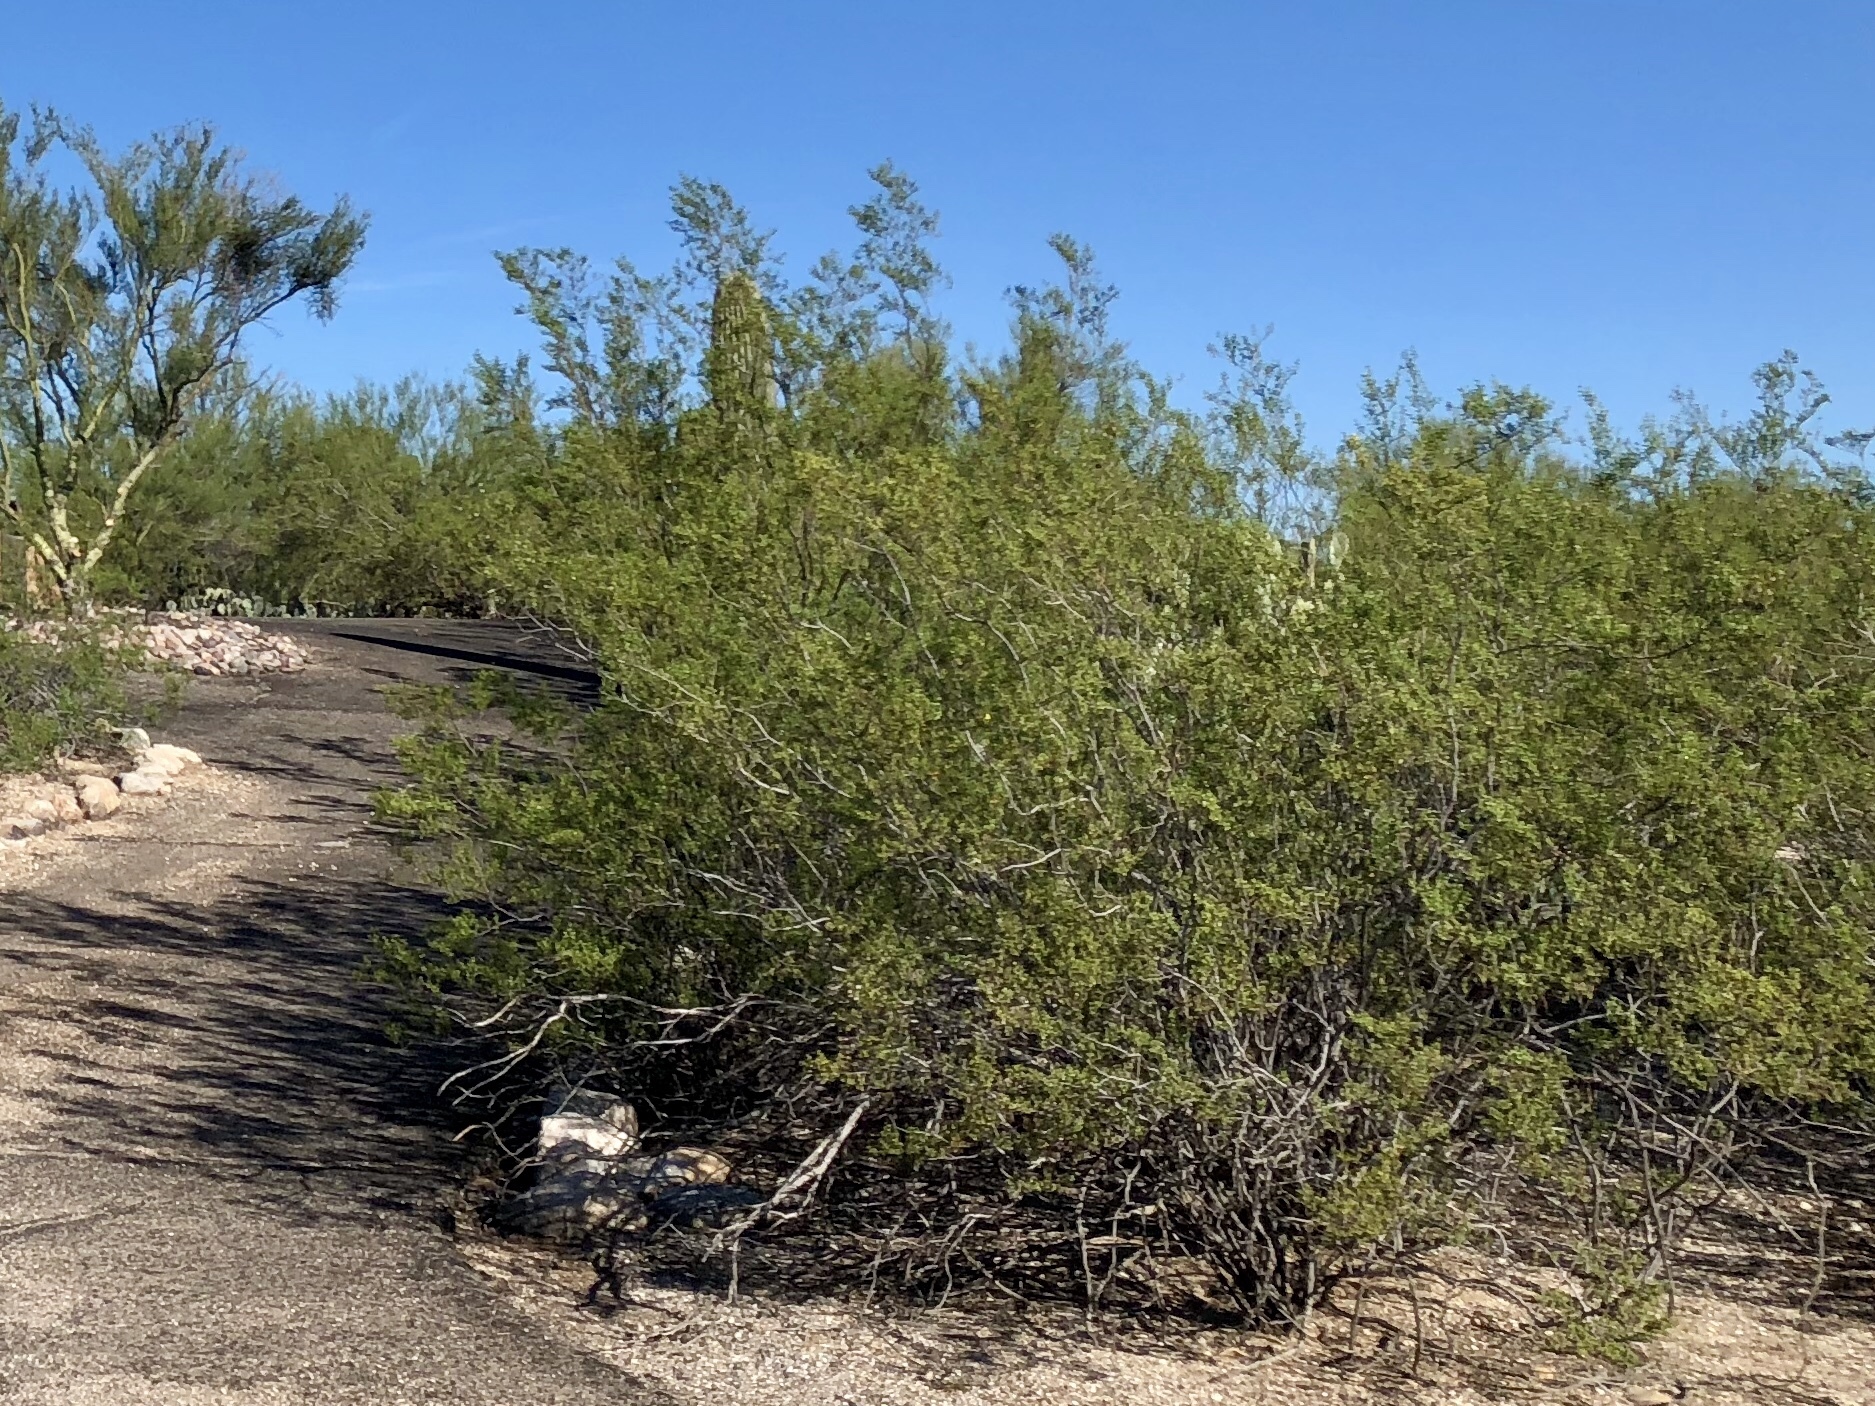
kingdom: Plantae
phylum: Tracheophyta
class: Magnoliopsida
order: Zygophyllales
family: Zygophyllaceae
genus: Larrea
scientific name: Larrea tridentata
